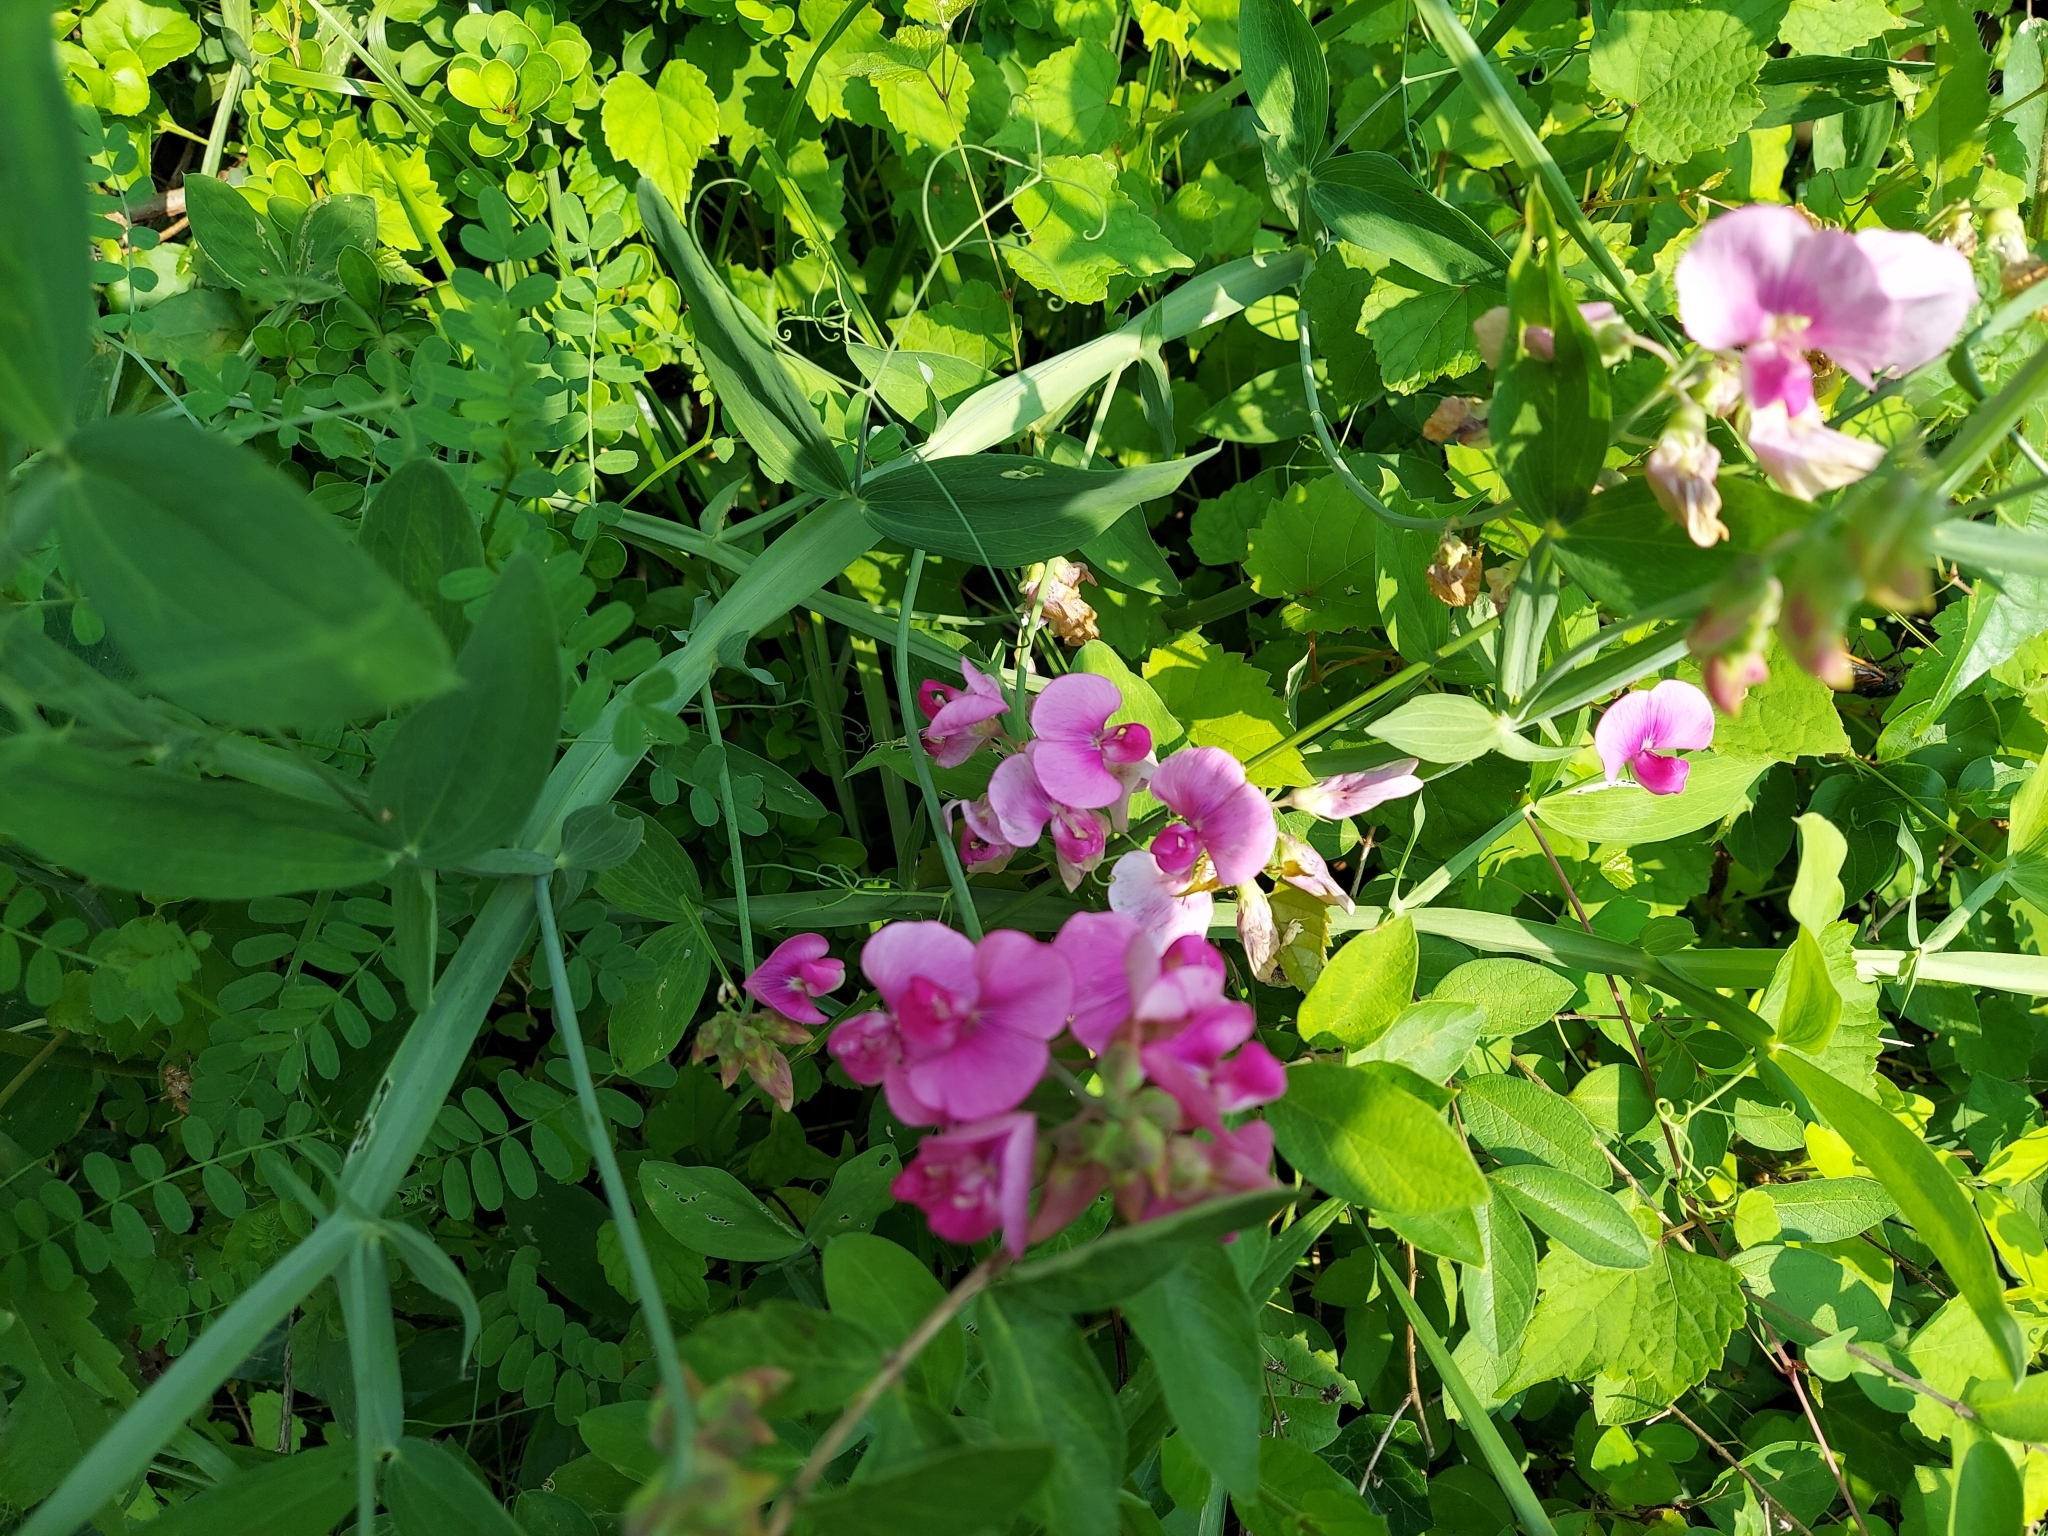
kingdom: Plantae
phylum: Tracheophyta
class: Magnoliopsida
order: Fabales
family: Fabaceae
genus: Lathyrus
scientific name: Lathyrus latifolius
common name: Perennial pea
